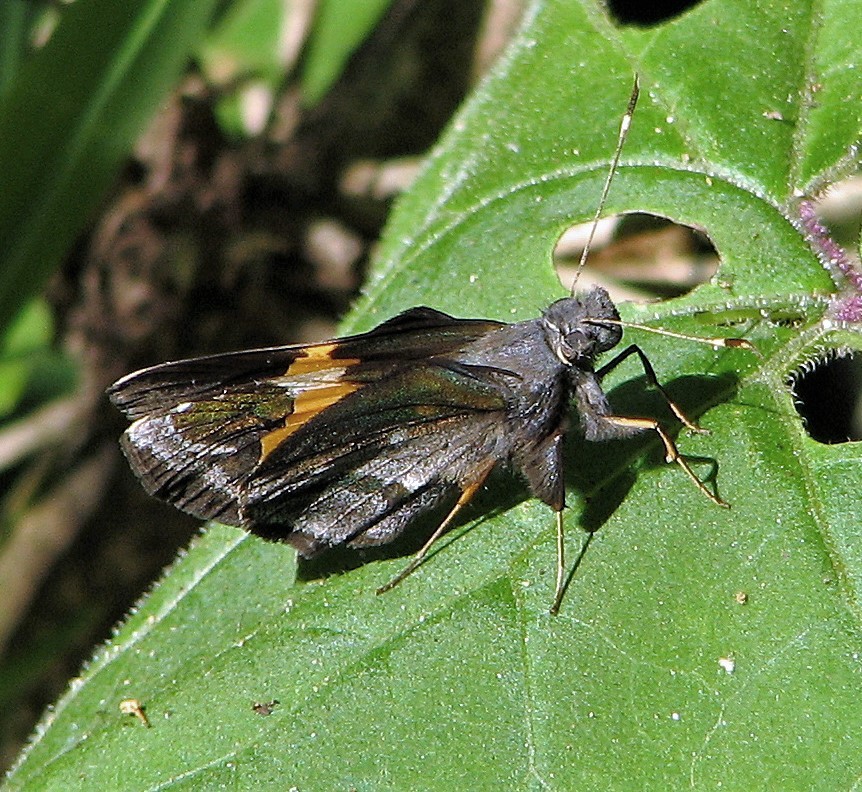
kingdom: Animalia
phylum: Arthropoda
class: Insecta
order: Lepidoptera
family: Hesperiidae
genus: Lychnuchoides
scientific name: Lychnuchoides ozias
